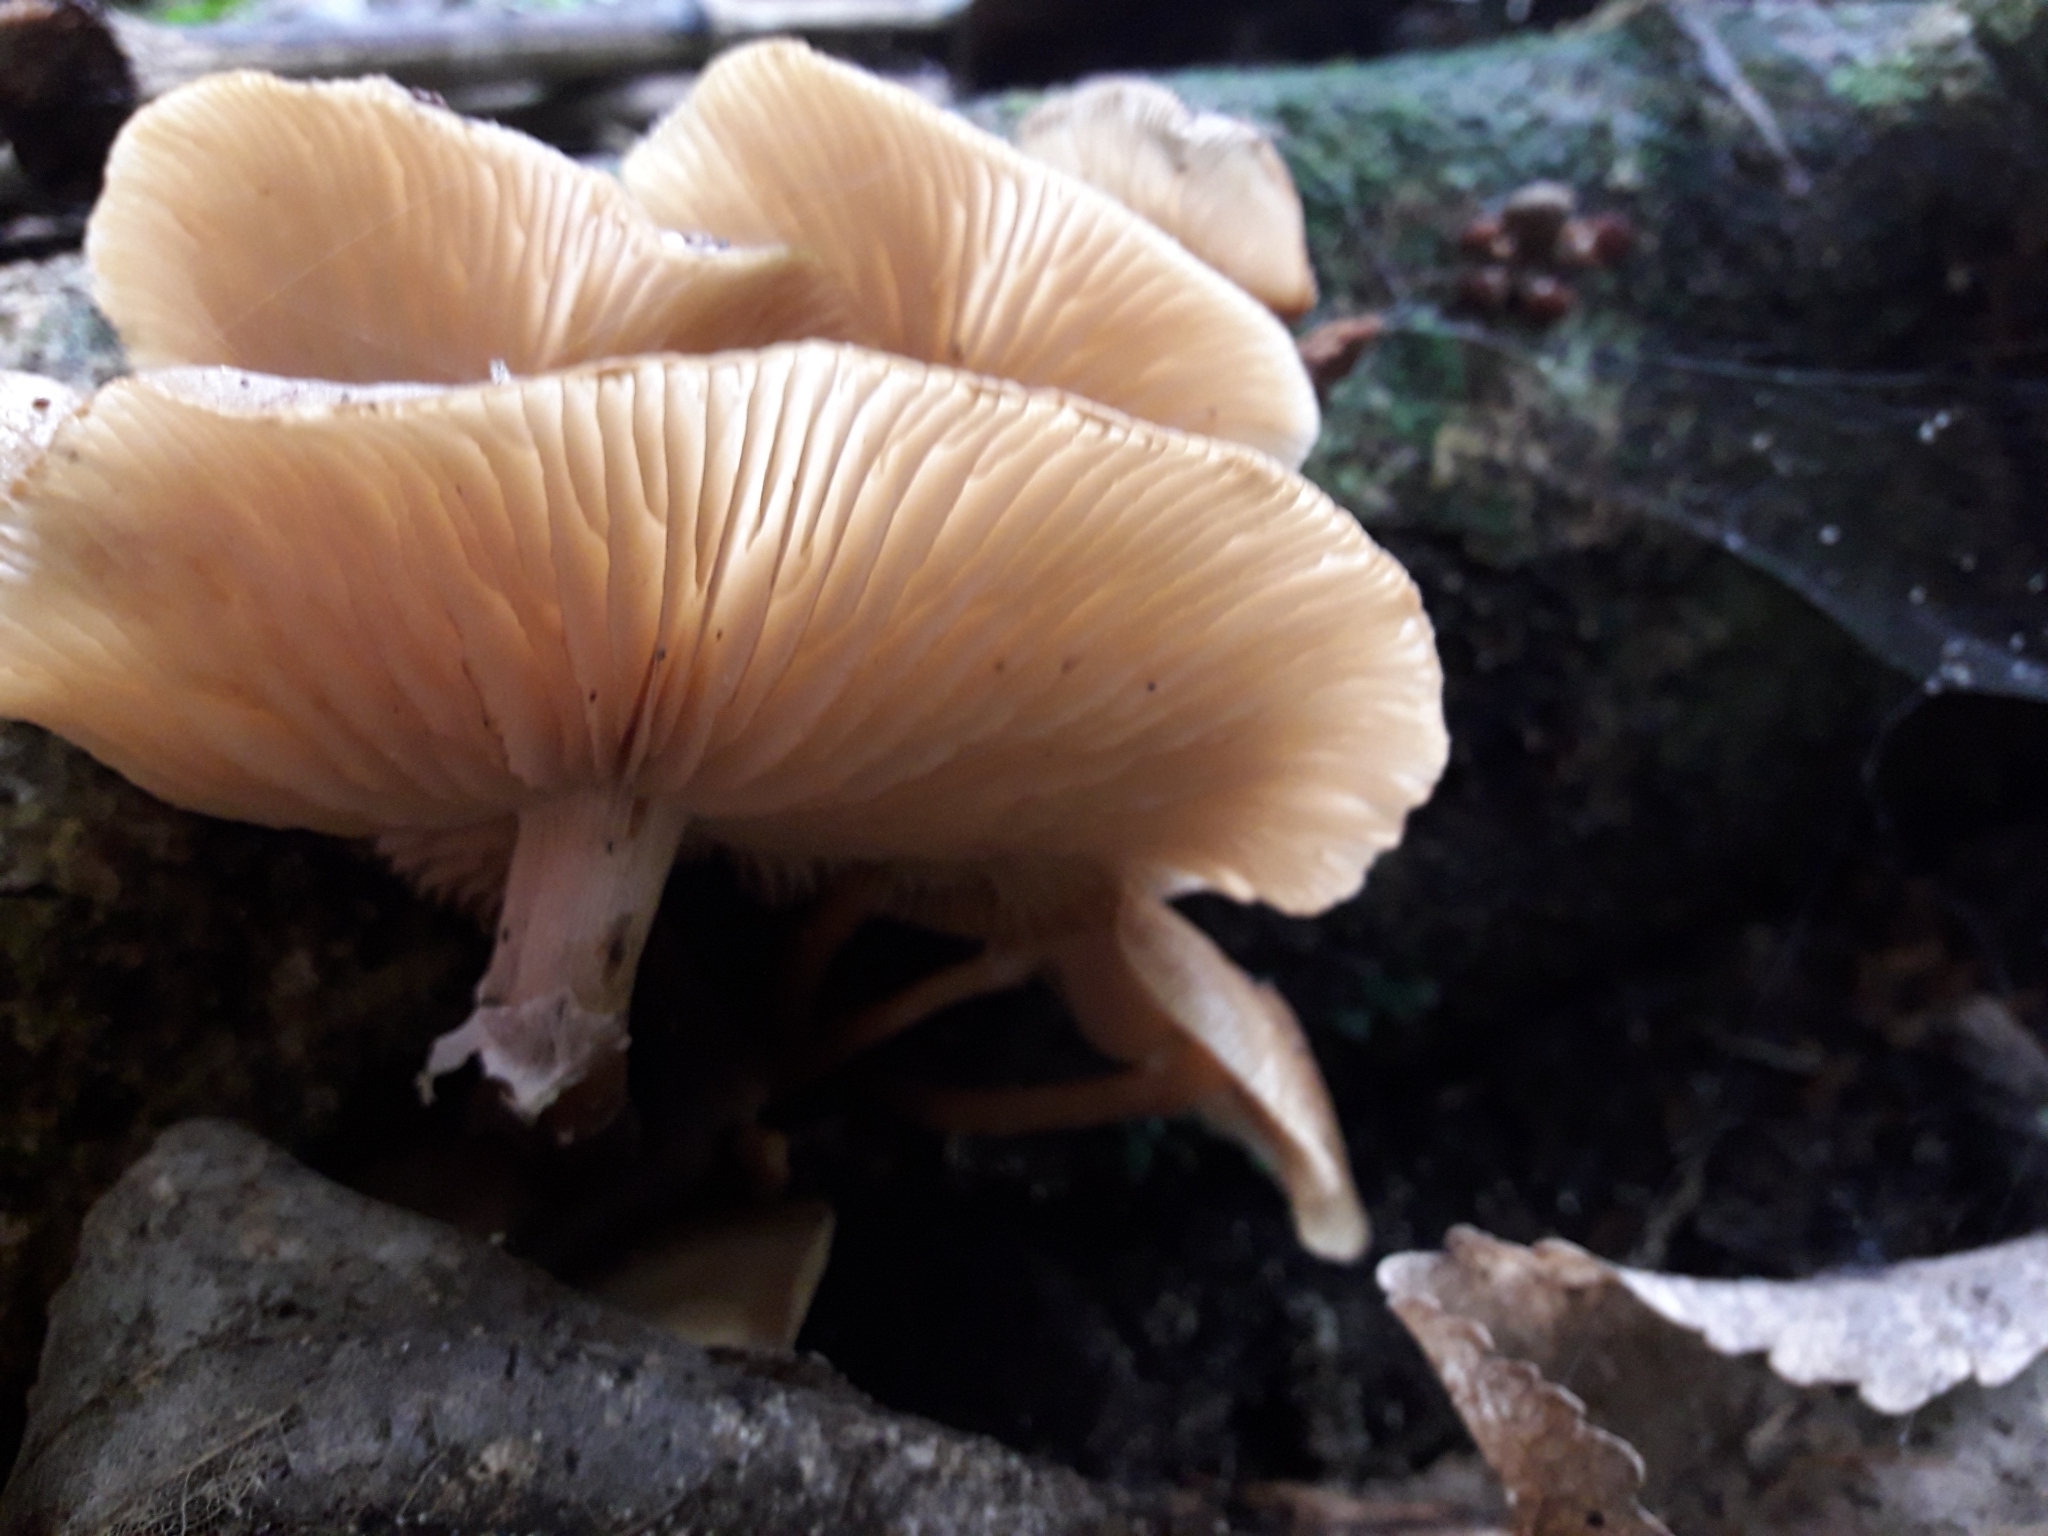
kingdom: Fungi
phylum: Basidiomycota
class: Agaricomycetes
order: Agaricales
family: Physalacriaceae
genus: Armillaria
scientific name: Armillaria limonea
